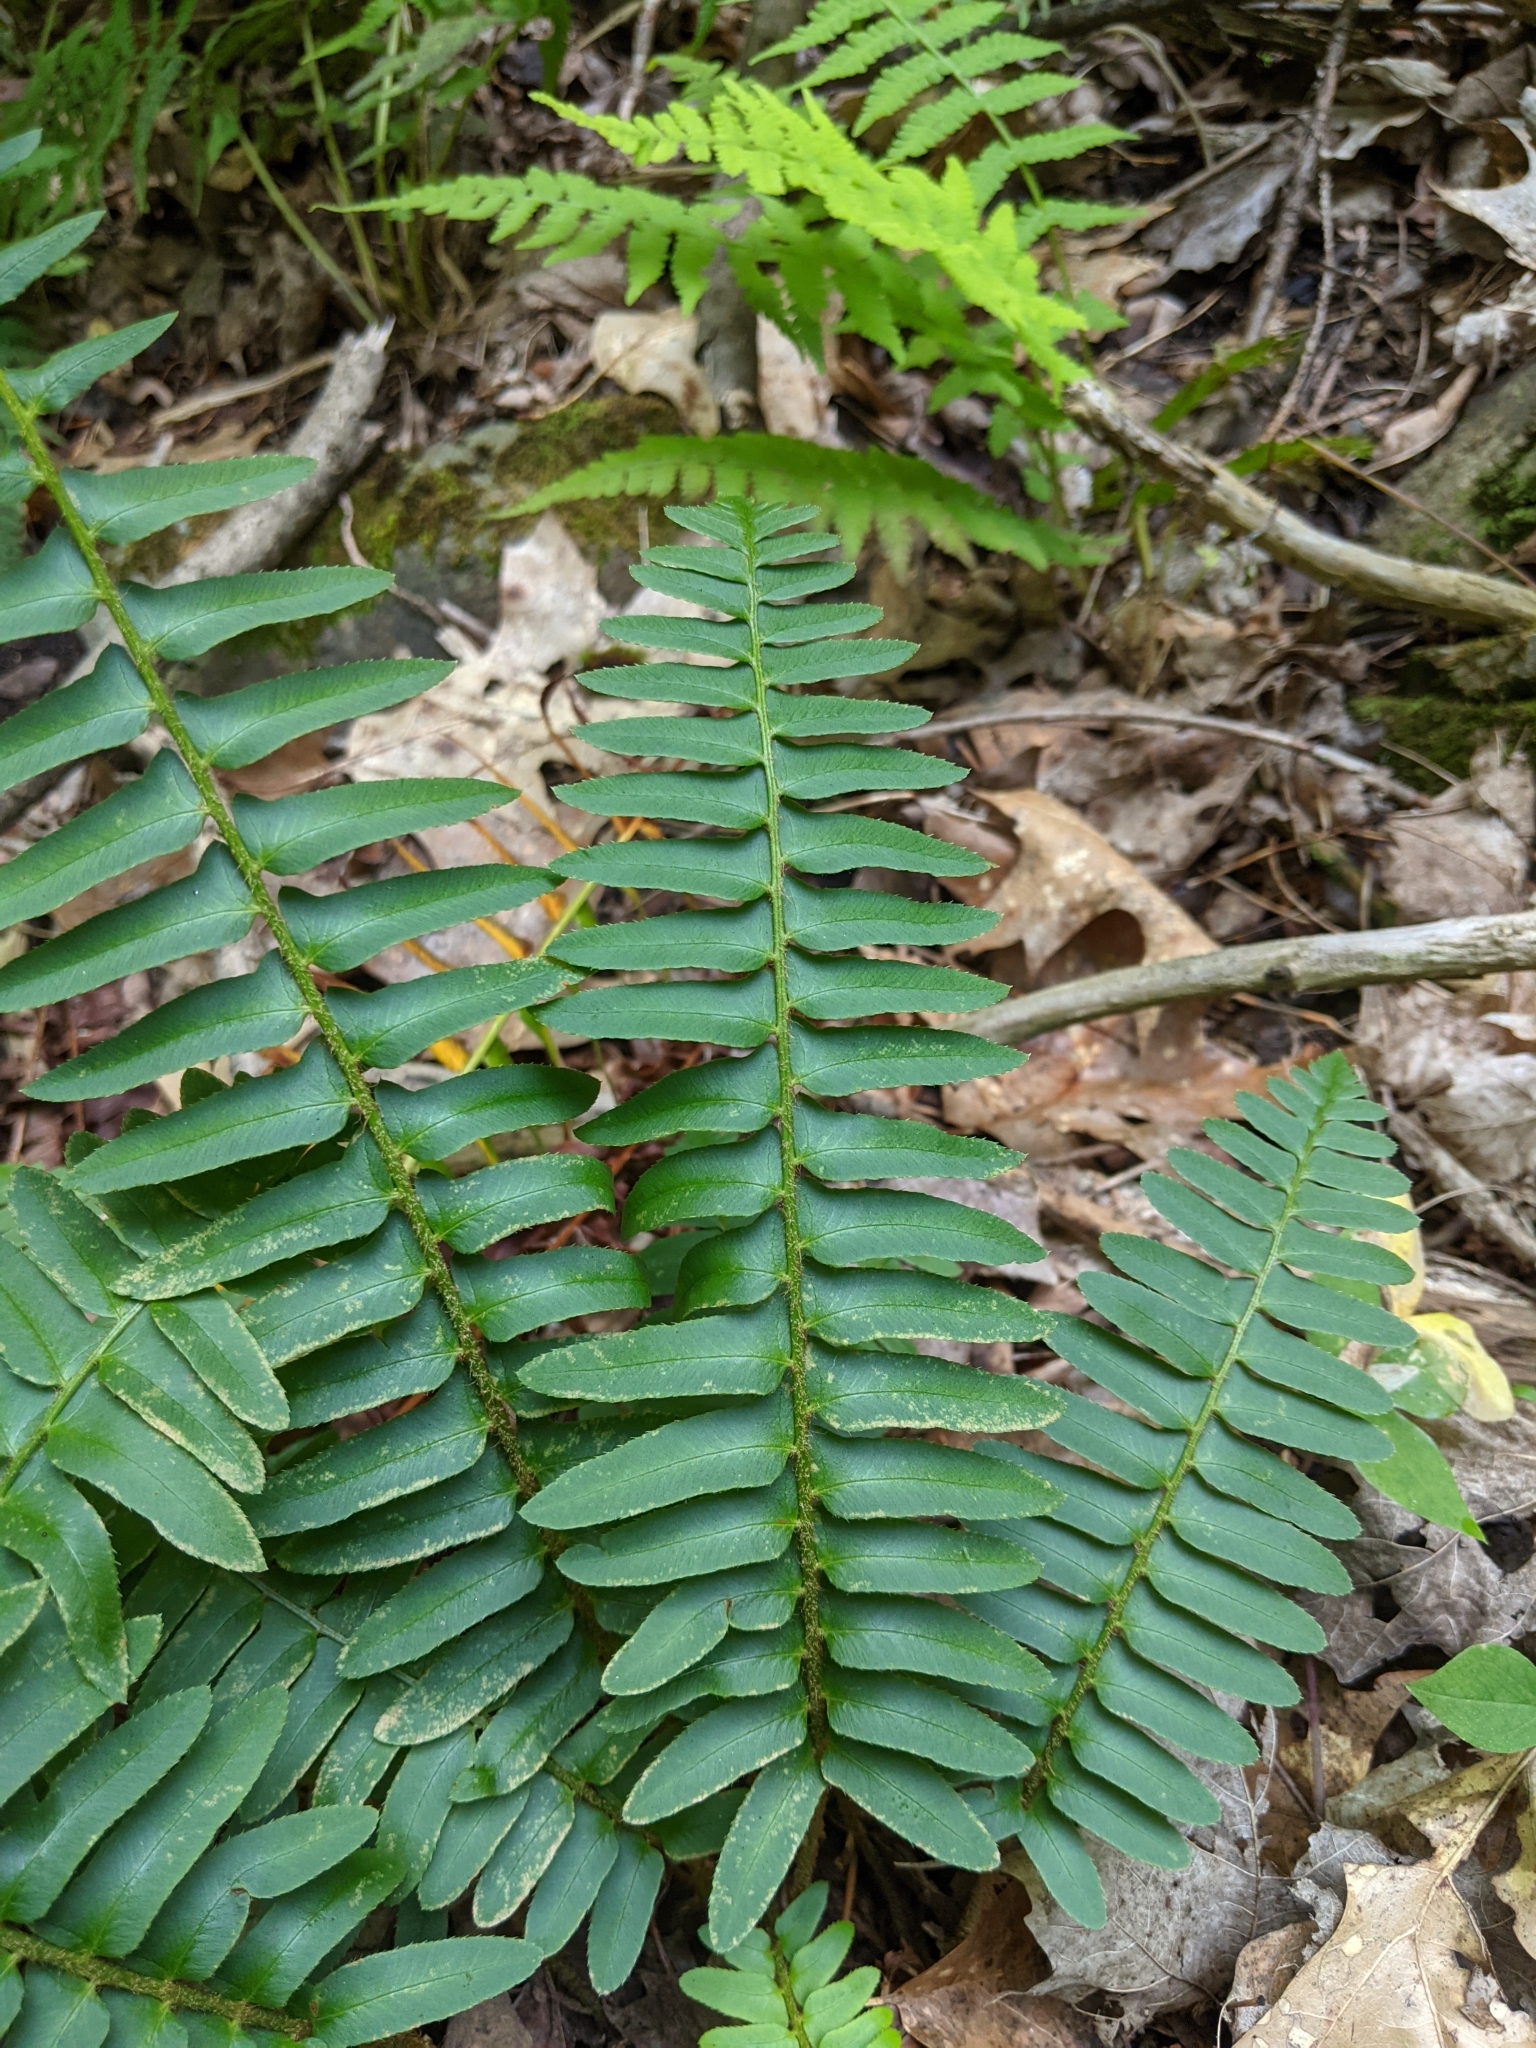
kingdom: Plantae
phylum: Tracheophyta
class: Polypodiopsida
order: Polypodiales
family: Dryopteridaceae
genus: Polystichum
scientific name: Polystichum acrostichoides
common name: Christmas fern
